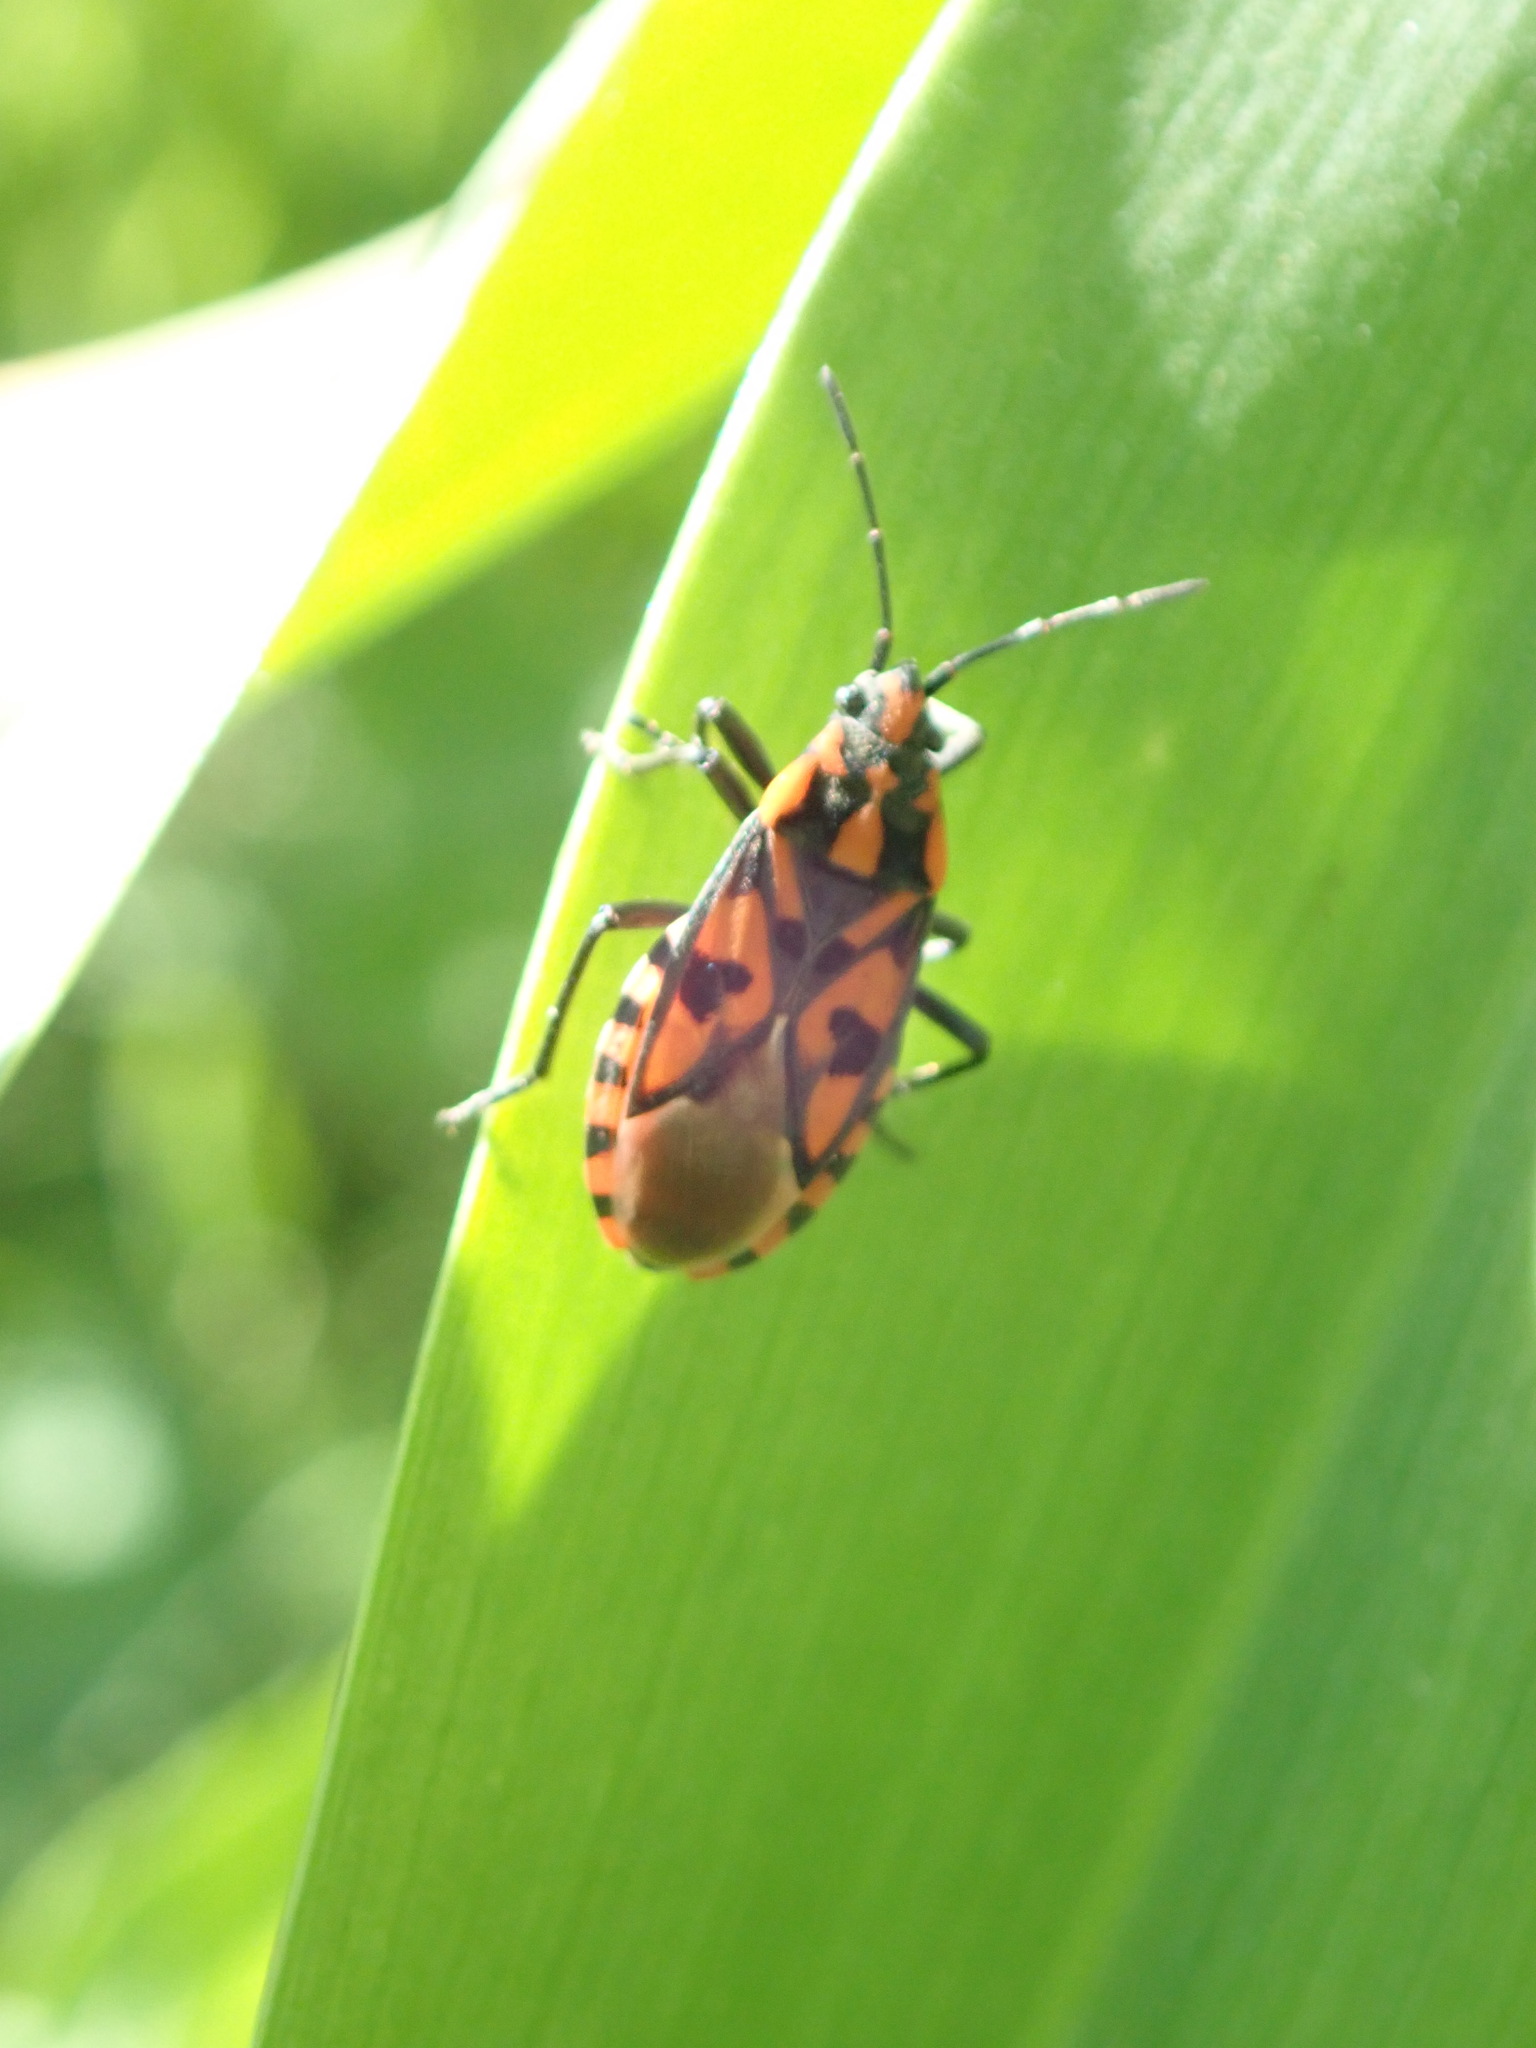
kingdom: Animalia
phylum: Arthropoda
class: Insecta
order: Hemiptera
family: Lygaeidae
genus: Spilostethus
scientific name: Spilostethus saxatilis
